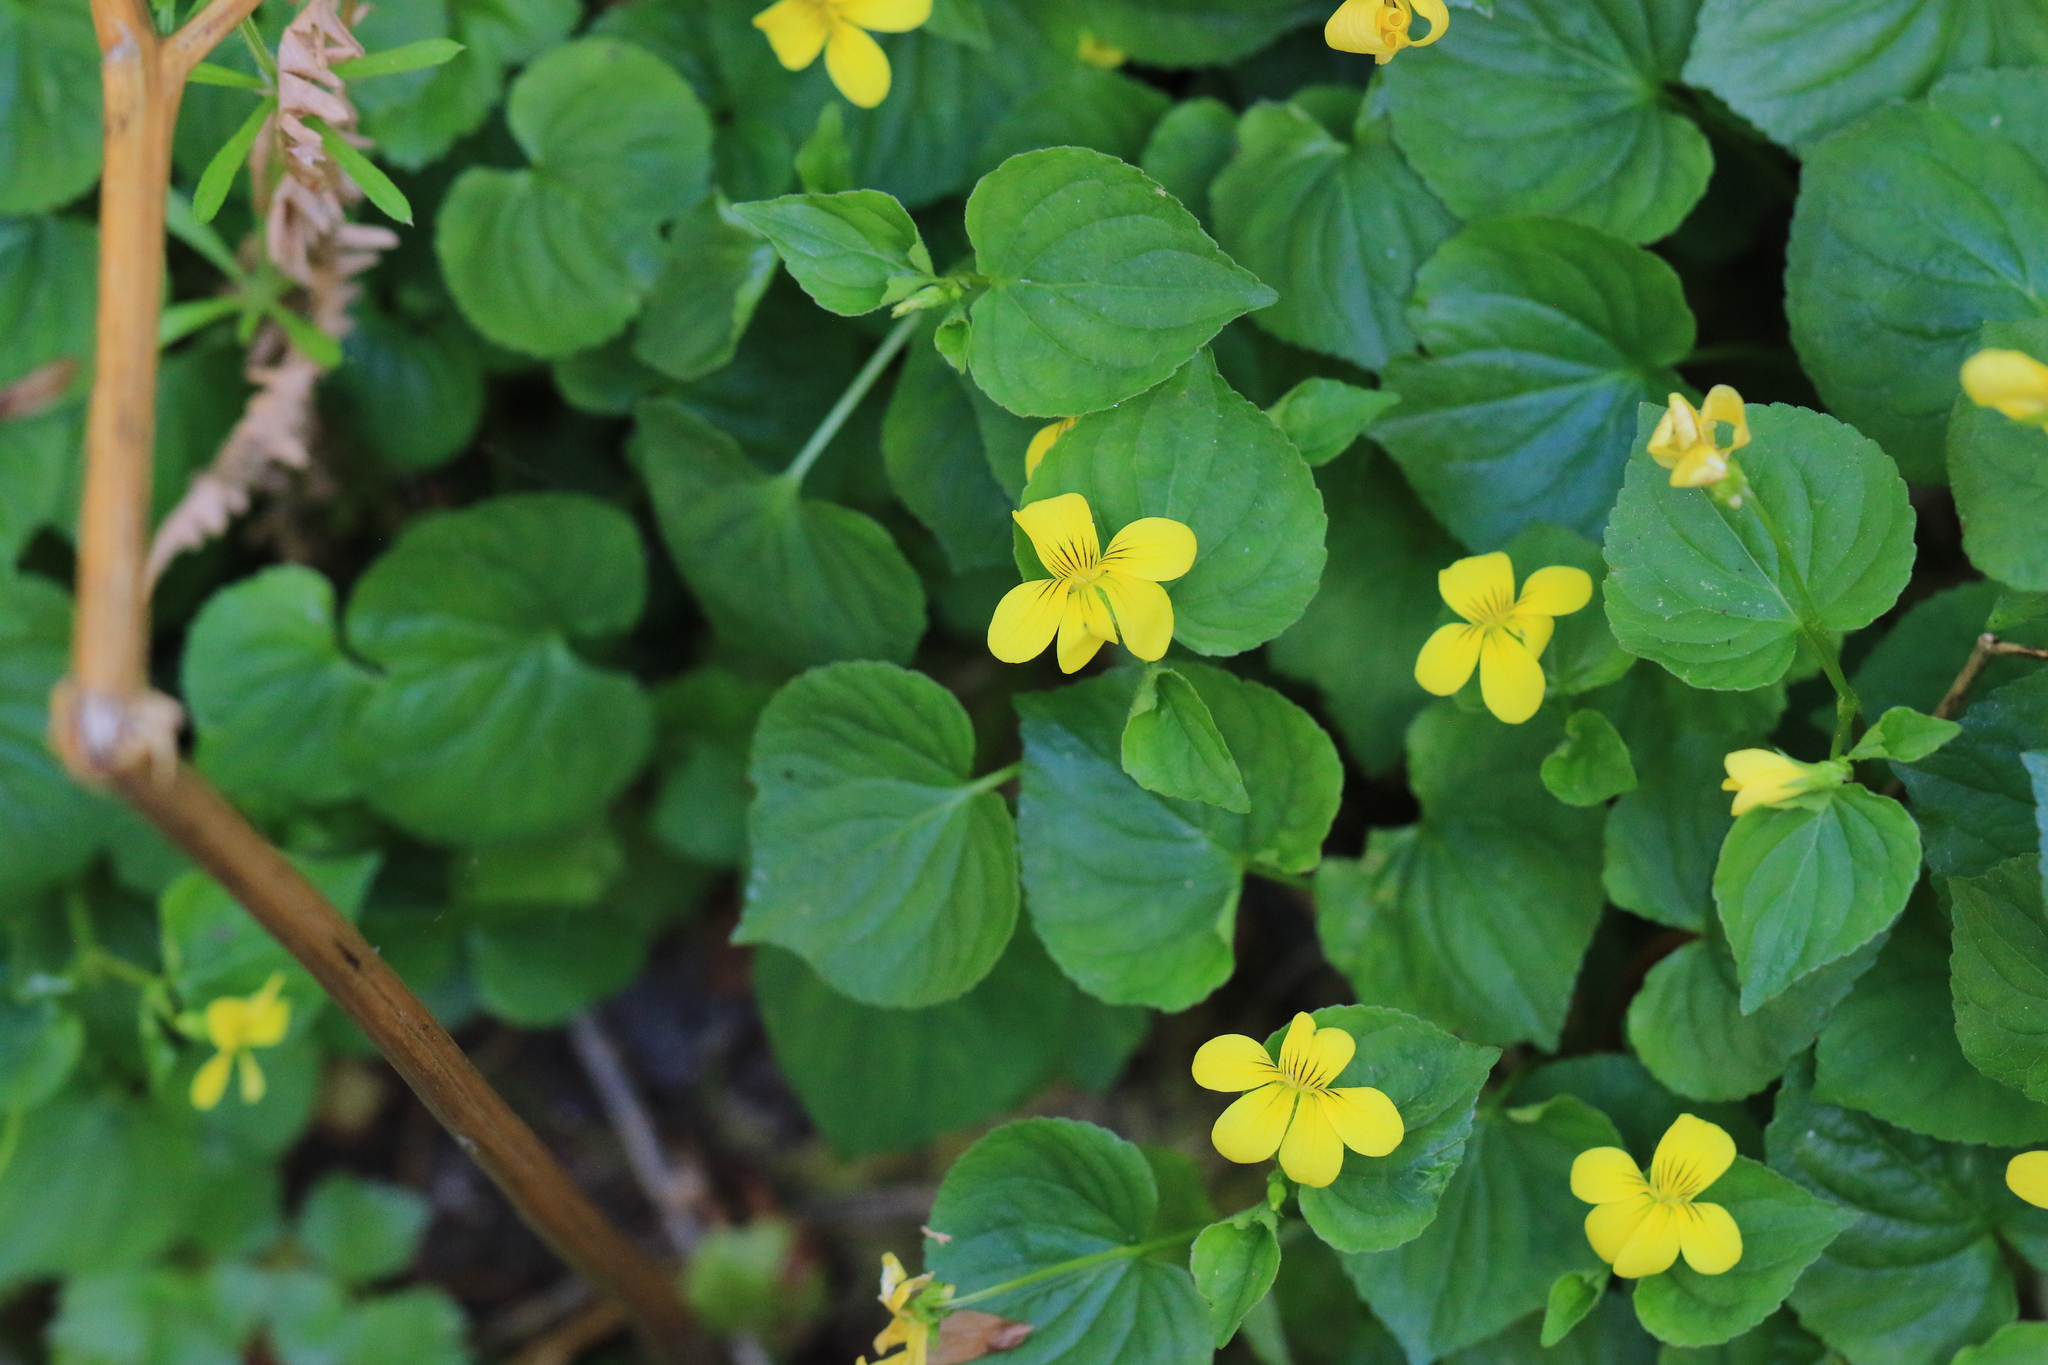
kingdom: Plantae
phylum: Tracheophyta
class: Magnoliopsida
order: Malpighiales
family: Violaceae
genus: Viola
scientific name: Viola glabella
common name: Stream violet
